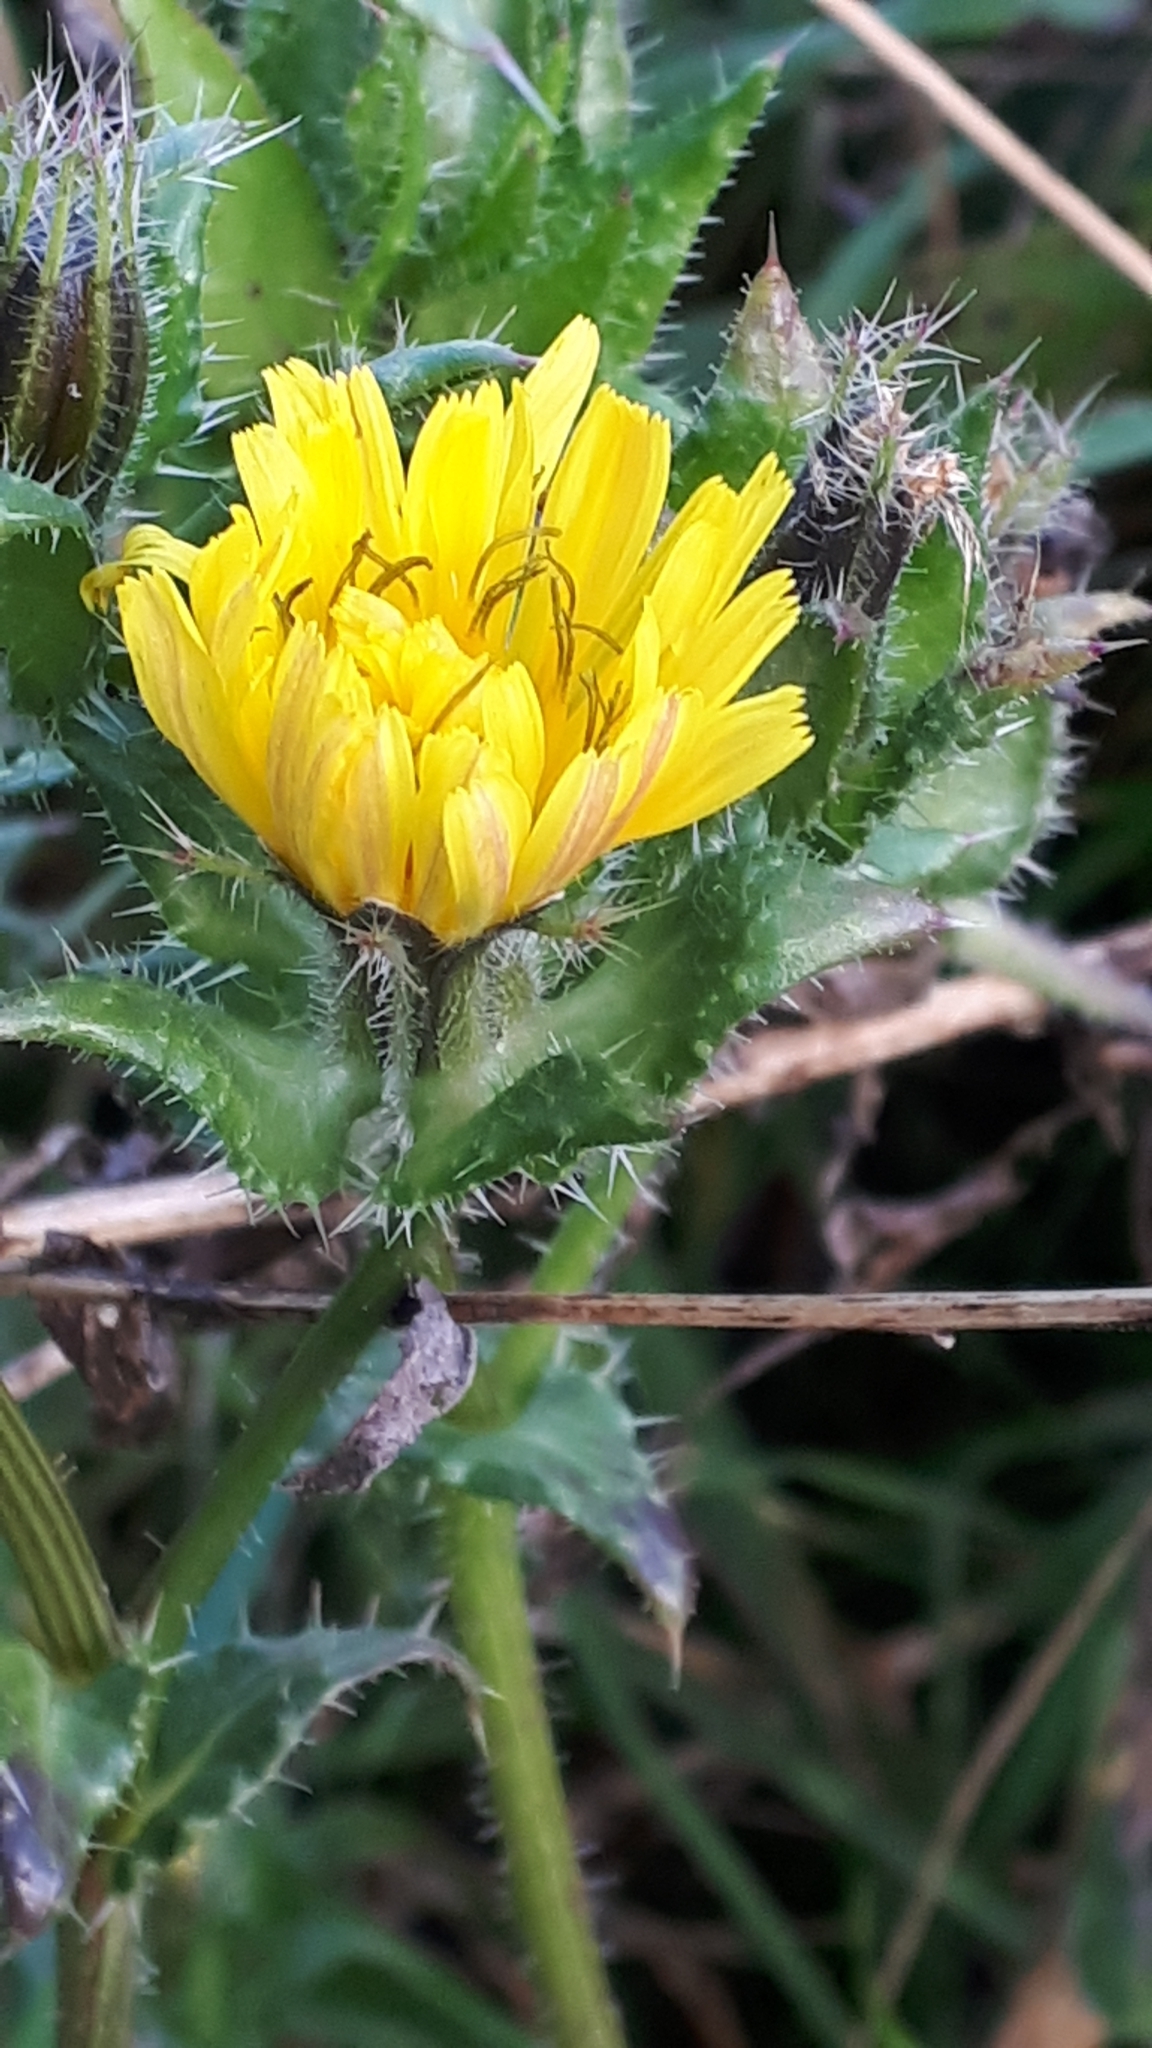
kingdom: Plantae
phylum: Tracheophyta
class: Magnoliopsida
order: Asterales
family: Asteraceae
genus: Helminthotheca
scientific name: Helminthotheca echioides
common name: Ox-tongue
